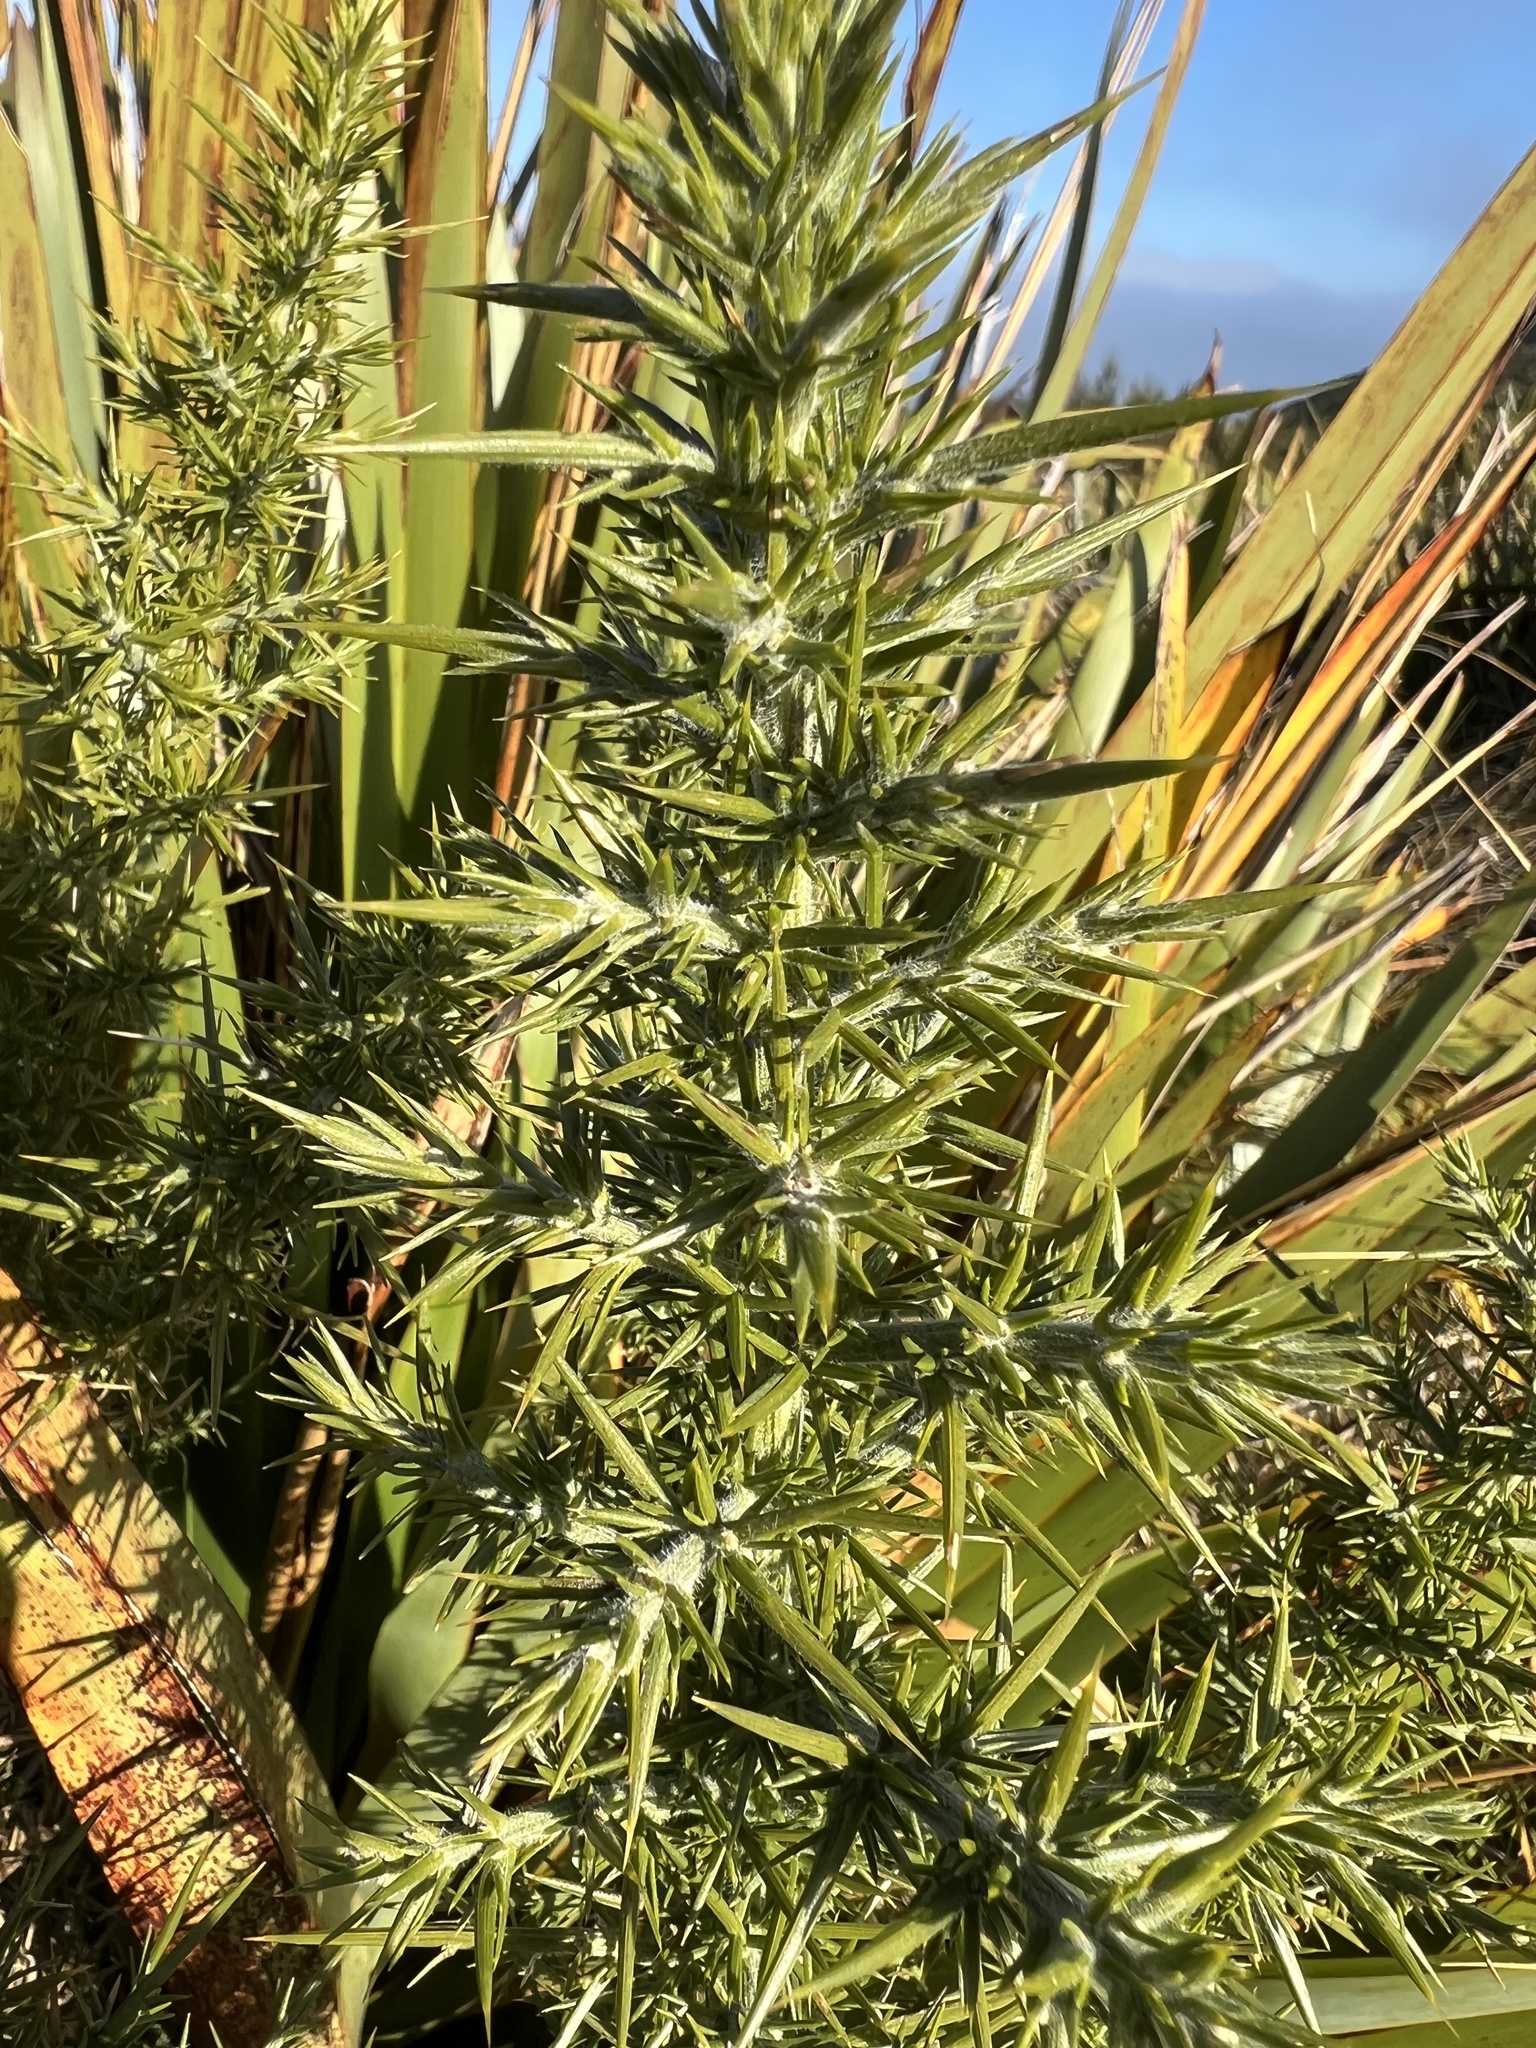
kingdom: Plantae
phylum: Tracheophyta
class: Magnoliopsida
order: Fabales
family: Fabaceae
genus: Ulex
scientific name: Ulex europaeus
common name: Common gorse
